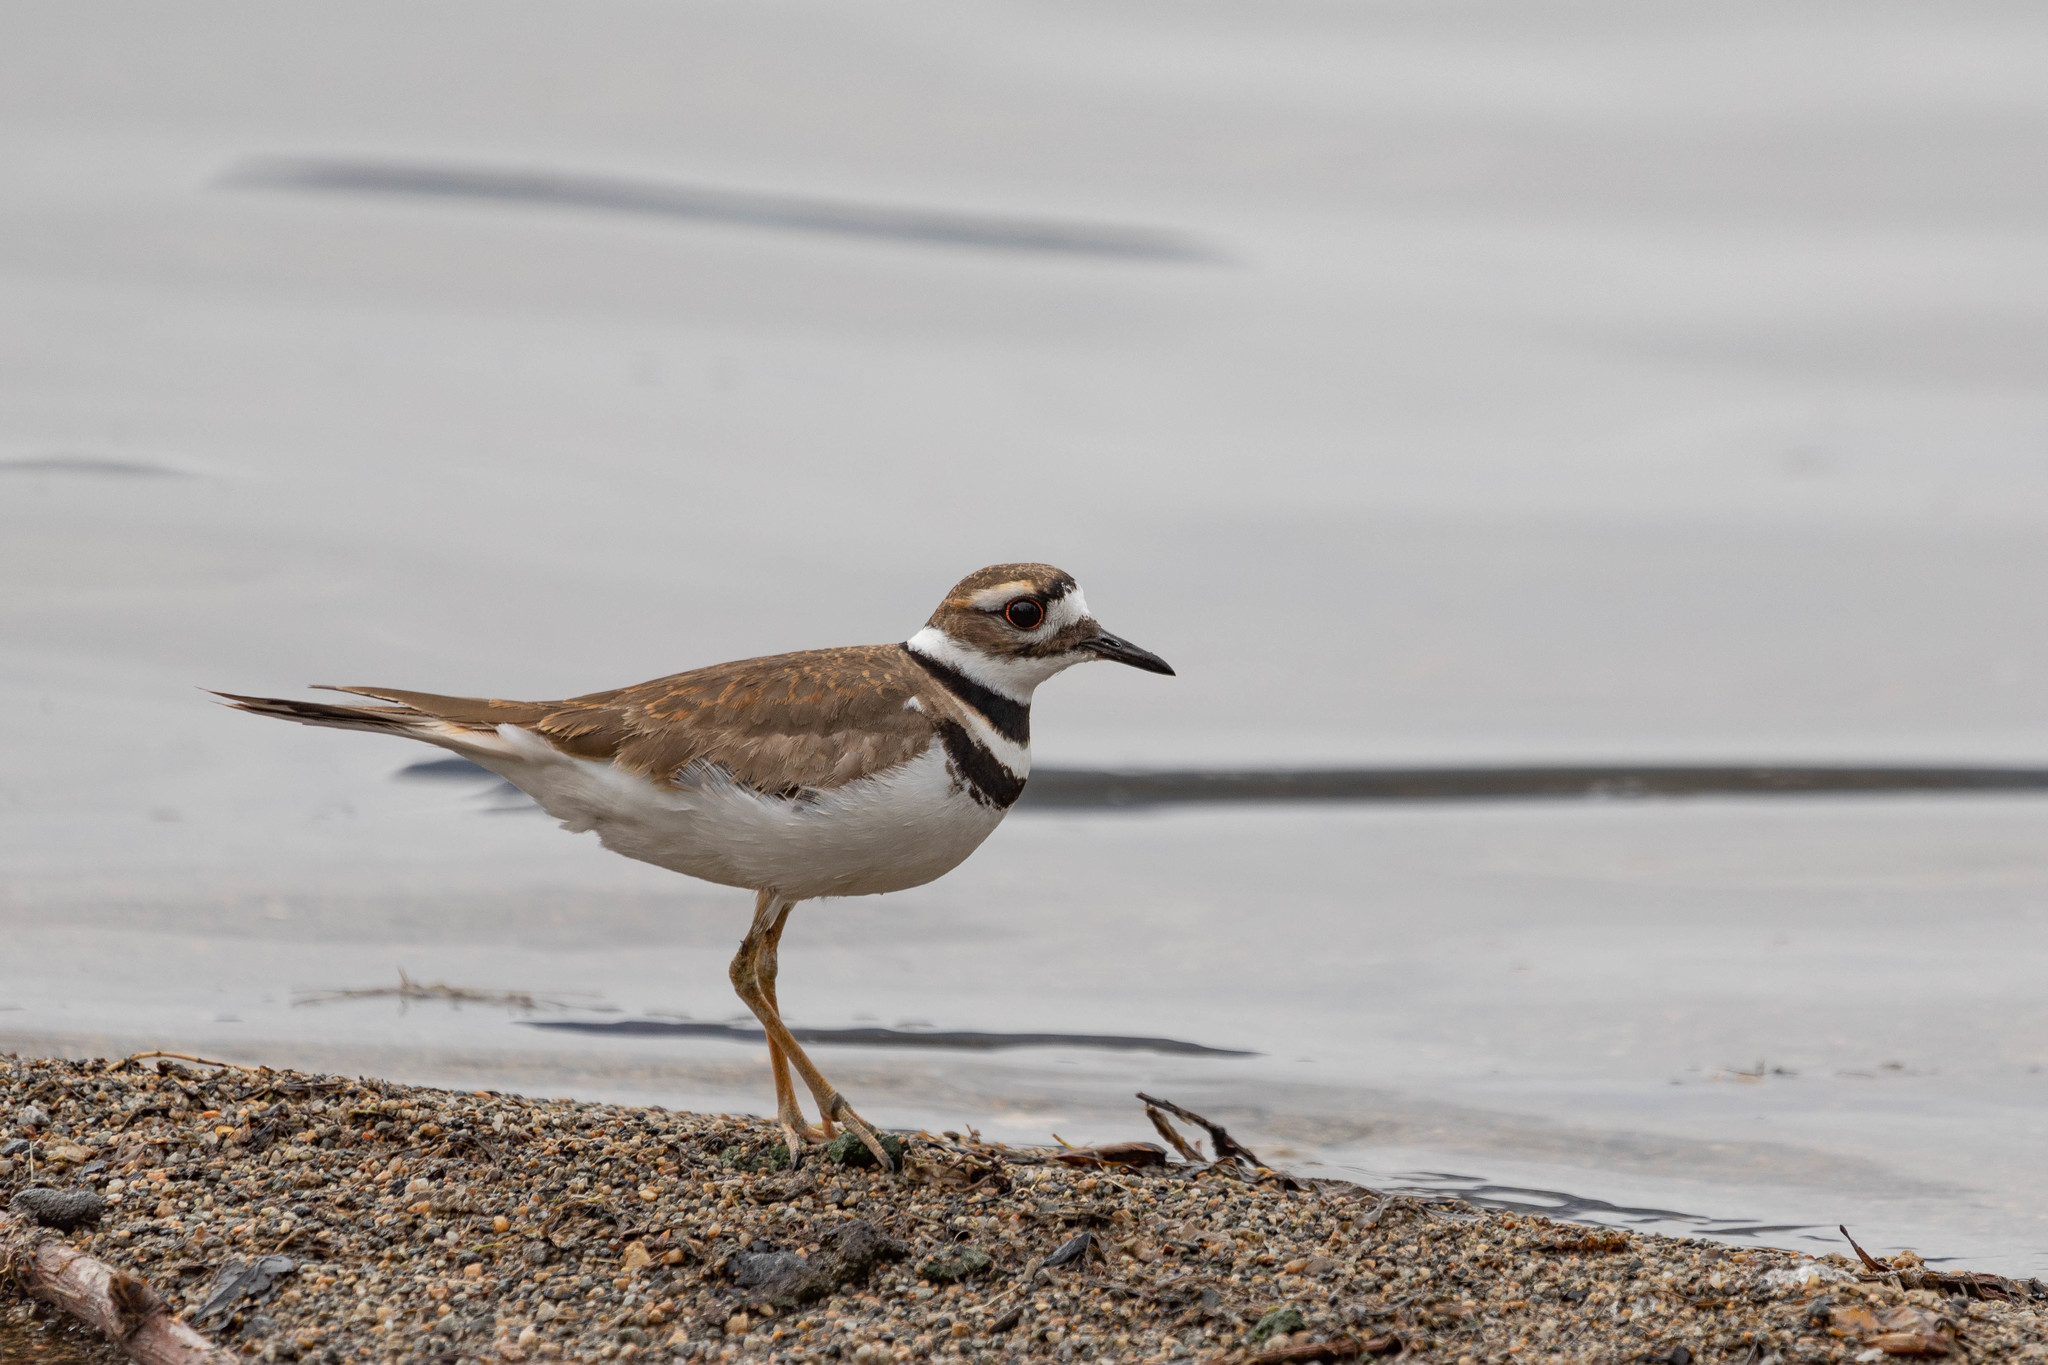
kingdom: Animalia
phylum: Chordata
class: Aves
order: Charadriiformes
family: Charadriidae
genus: Charadrius
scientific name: Charadrius vociferus
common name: Killdeer
